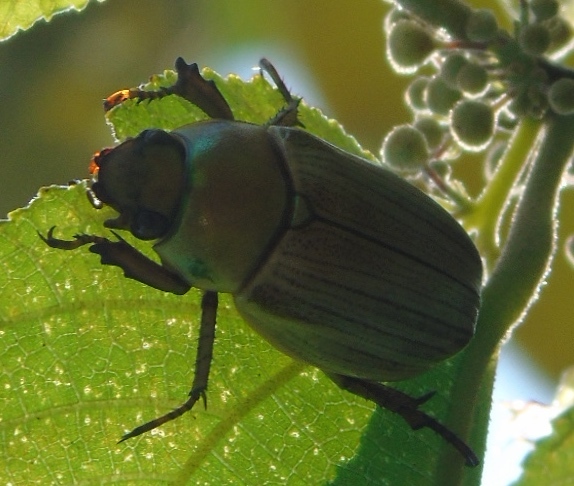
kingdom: Animalia
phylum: Arthropoda
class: Insecta
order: Coleoptera
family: Scarabaeidae
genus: Pelidnota
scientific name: Pelidnota virescens
